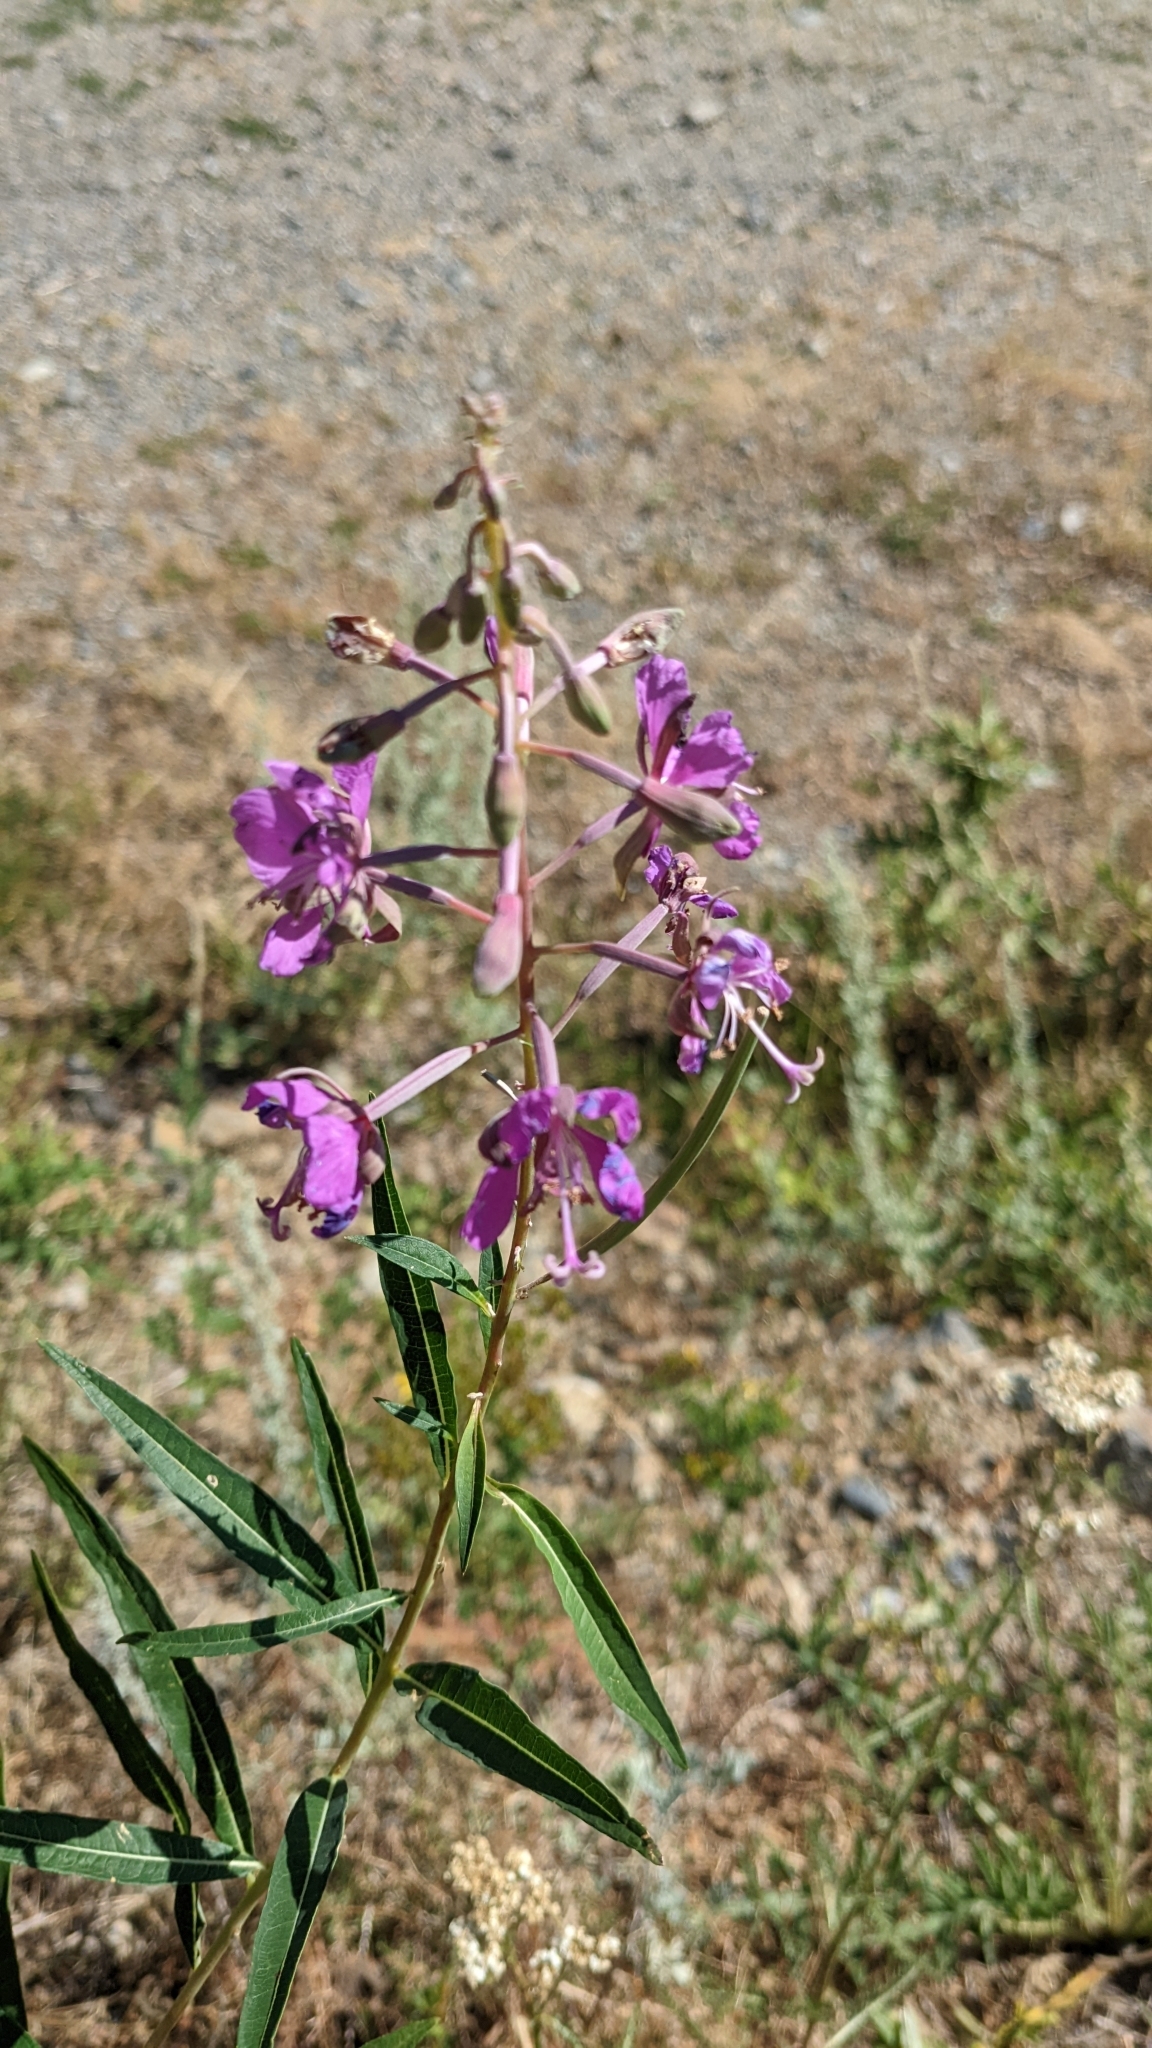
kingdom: Plantae
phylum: Tracheophyta
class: Magnoliopsida
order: Myrtales
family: Onagraceae
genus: Chamaenerion
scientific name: Chamaenerion angustifolium
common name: Fireweed
